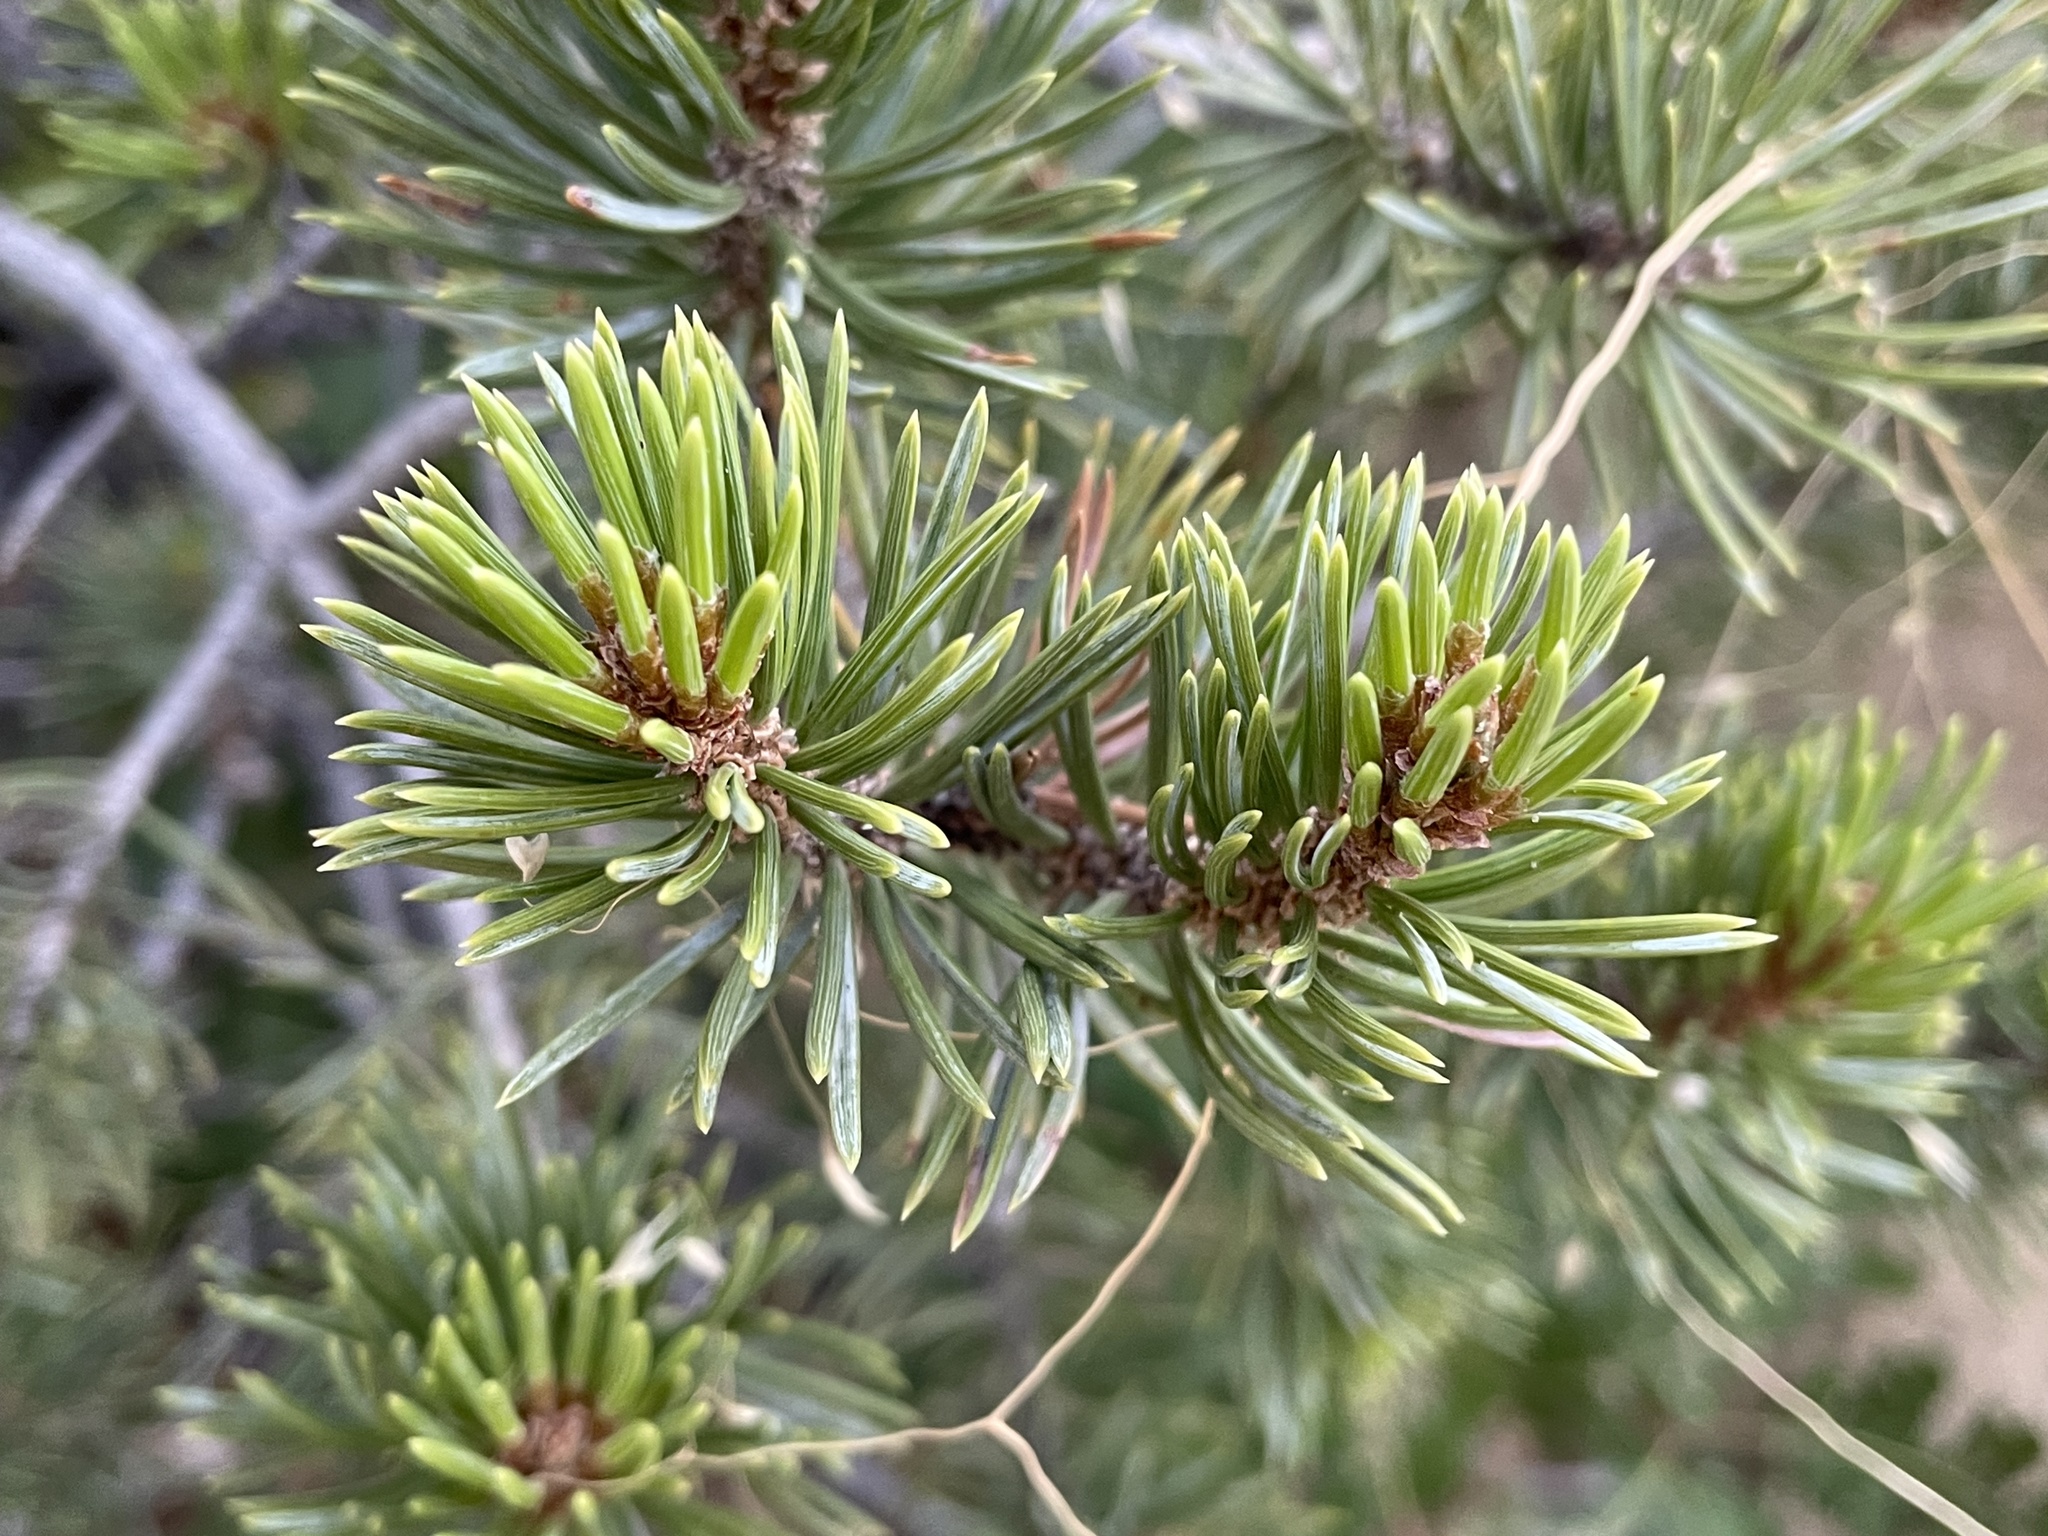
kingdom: Plantae
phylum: Tracheophyta
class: Pinopsida
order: Pinales
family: Pinaceae
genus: Pinus
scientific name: Pinus edulis
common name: Colorado pinyon
